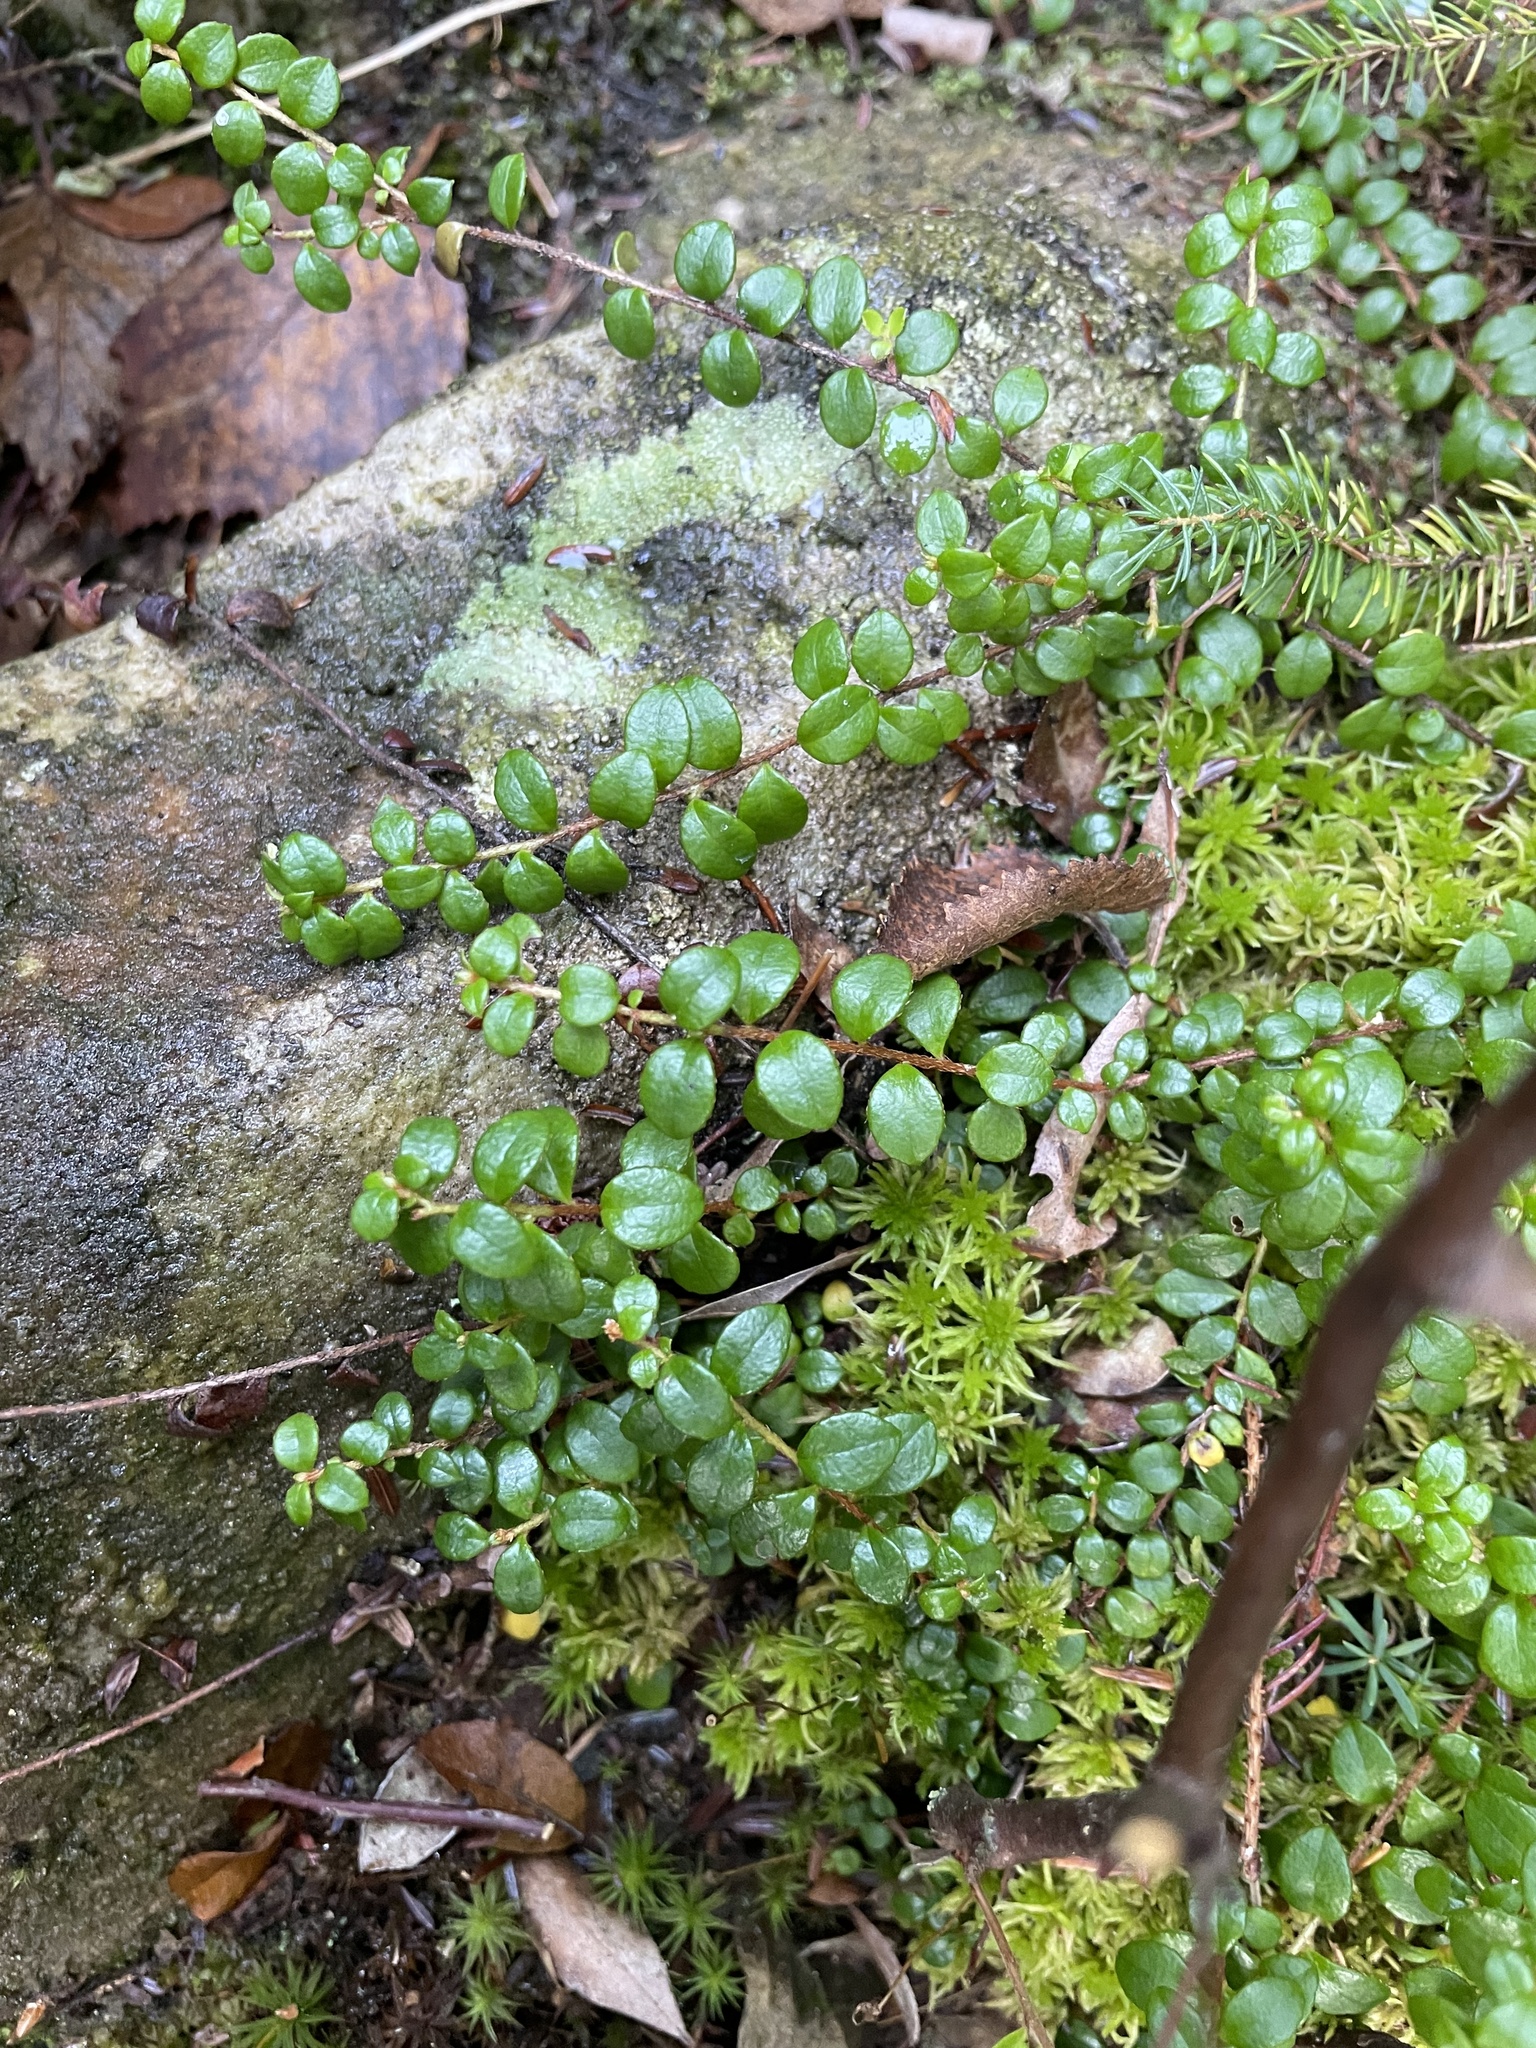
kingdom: Plantae
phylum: Tracheophyta
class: Magnoliopsida
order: Ericales
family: Ericaceae
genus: Gaultheria
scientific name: Gaultheria hispidula
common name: Cancer wintergreen
